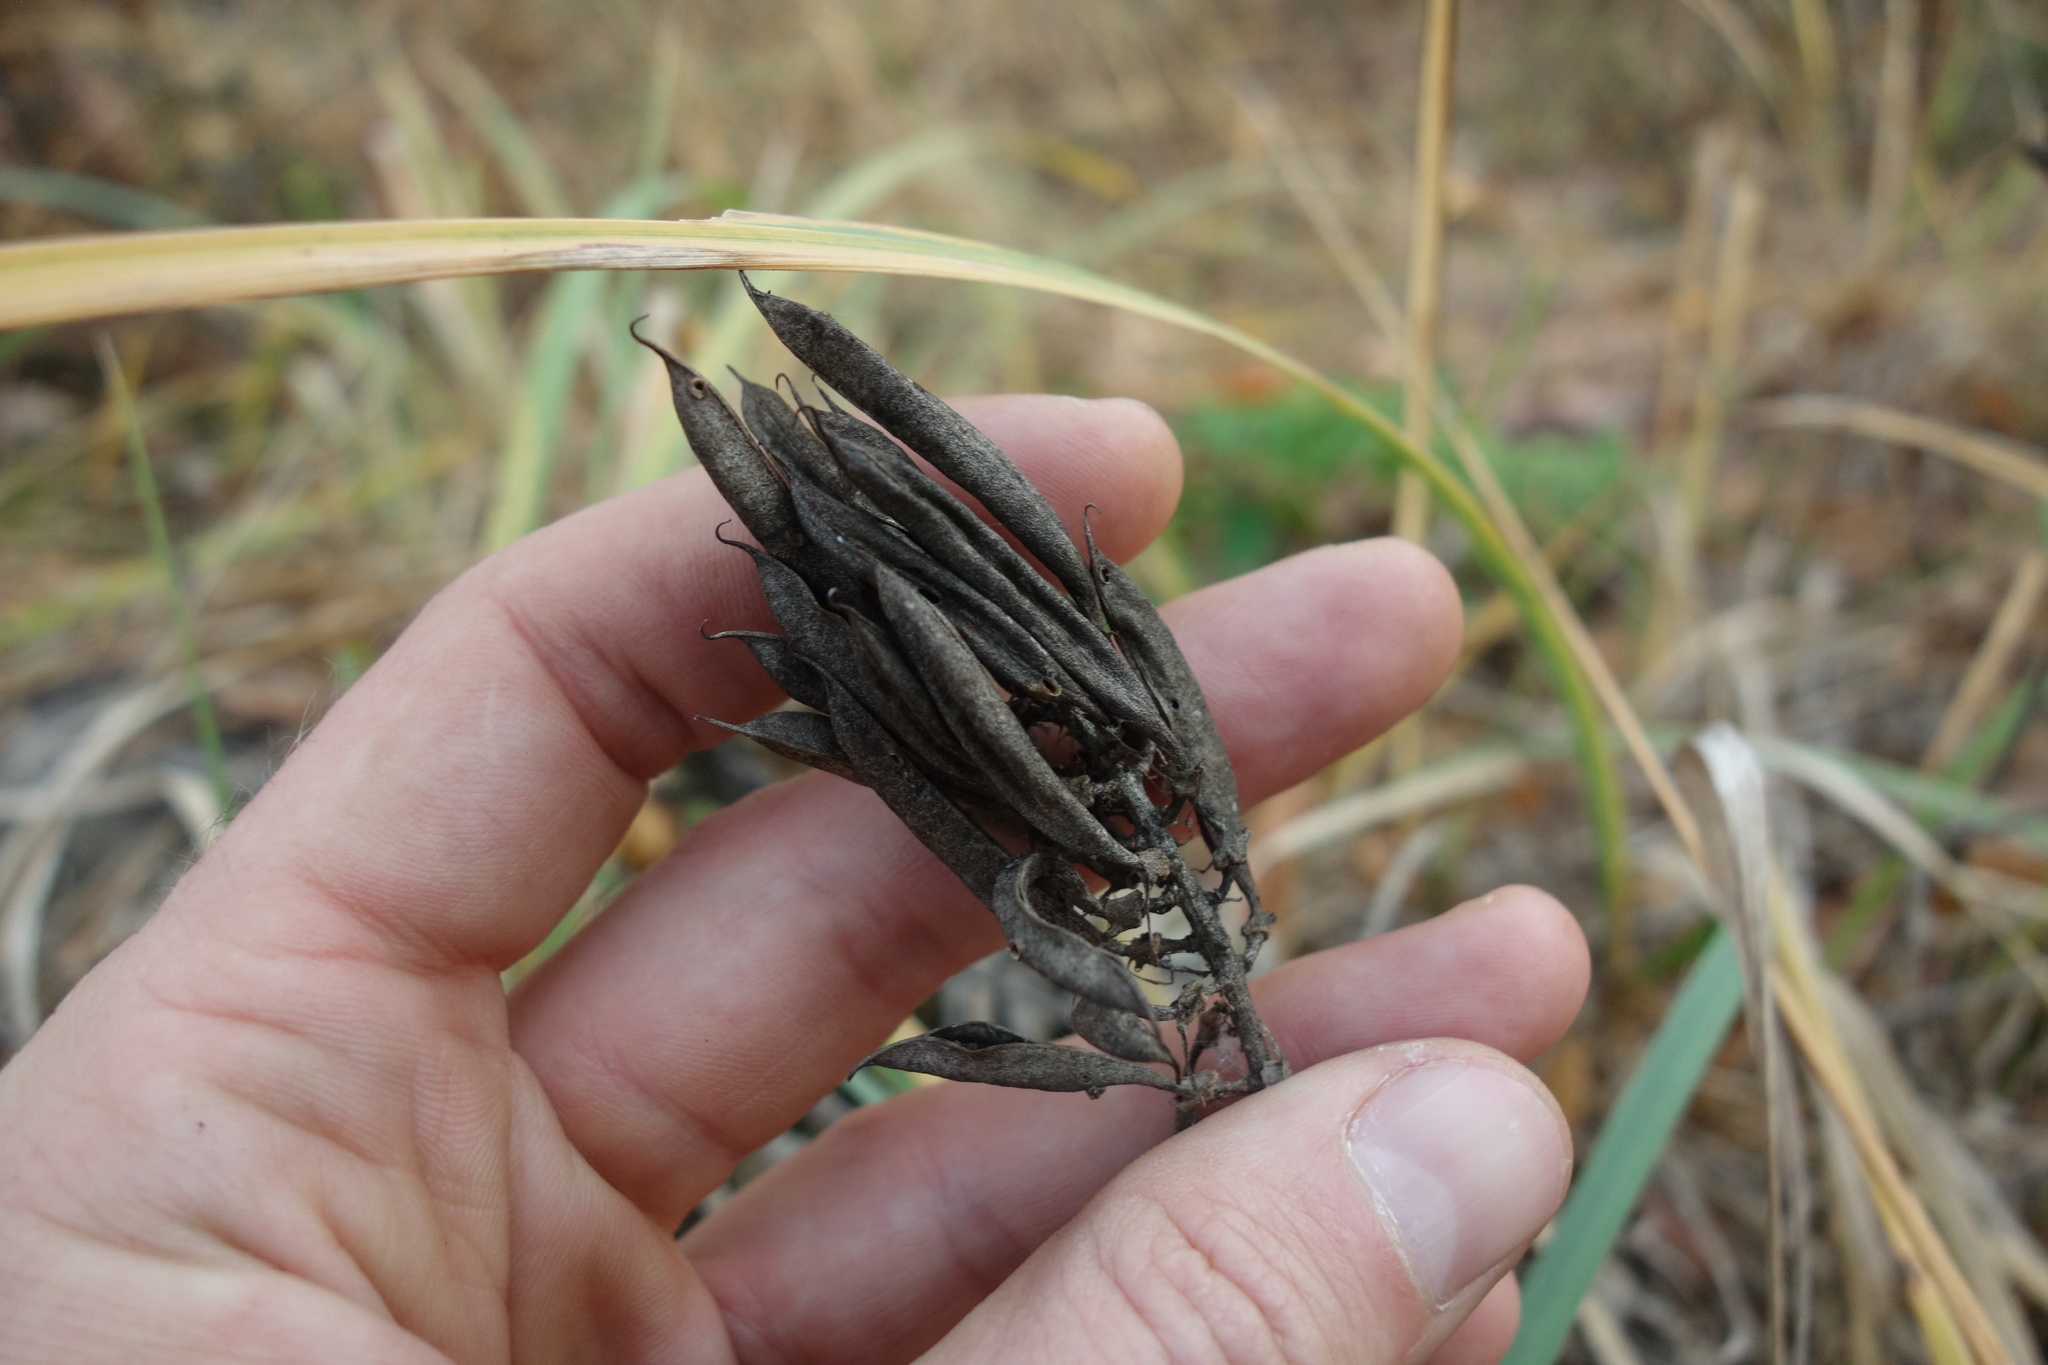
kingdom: Plantae
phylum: Tracheophyta
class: Magnoliopsida
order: Fabales
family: Fabaceae
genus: Astragalus
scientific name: Astragalus glycyphyllos
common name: Wild liquorice
